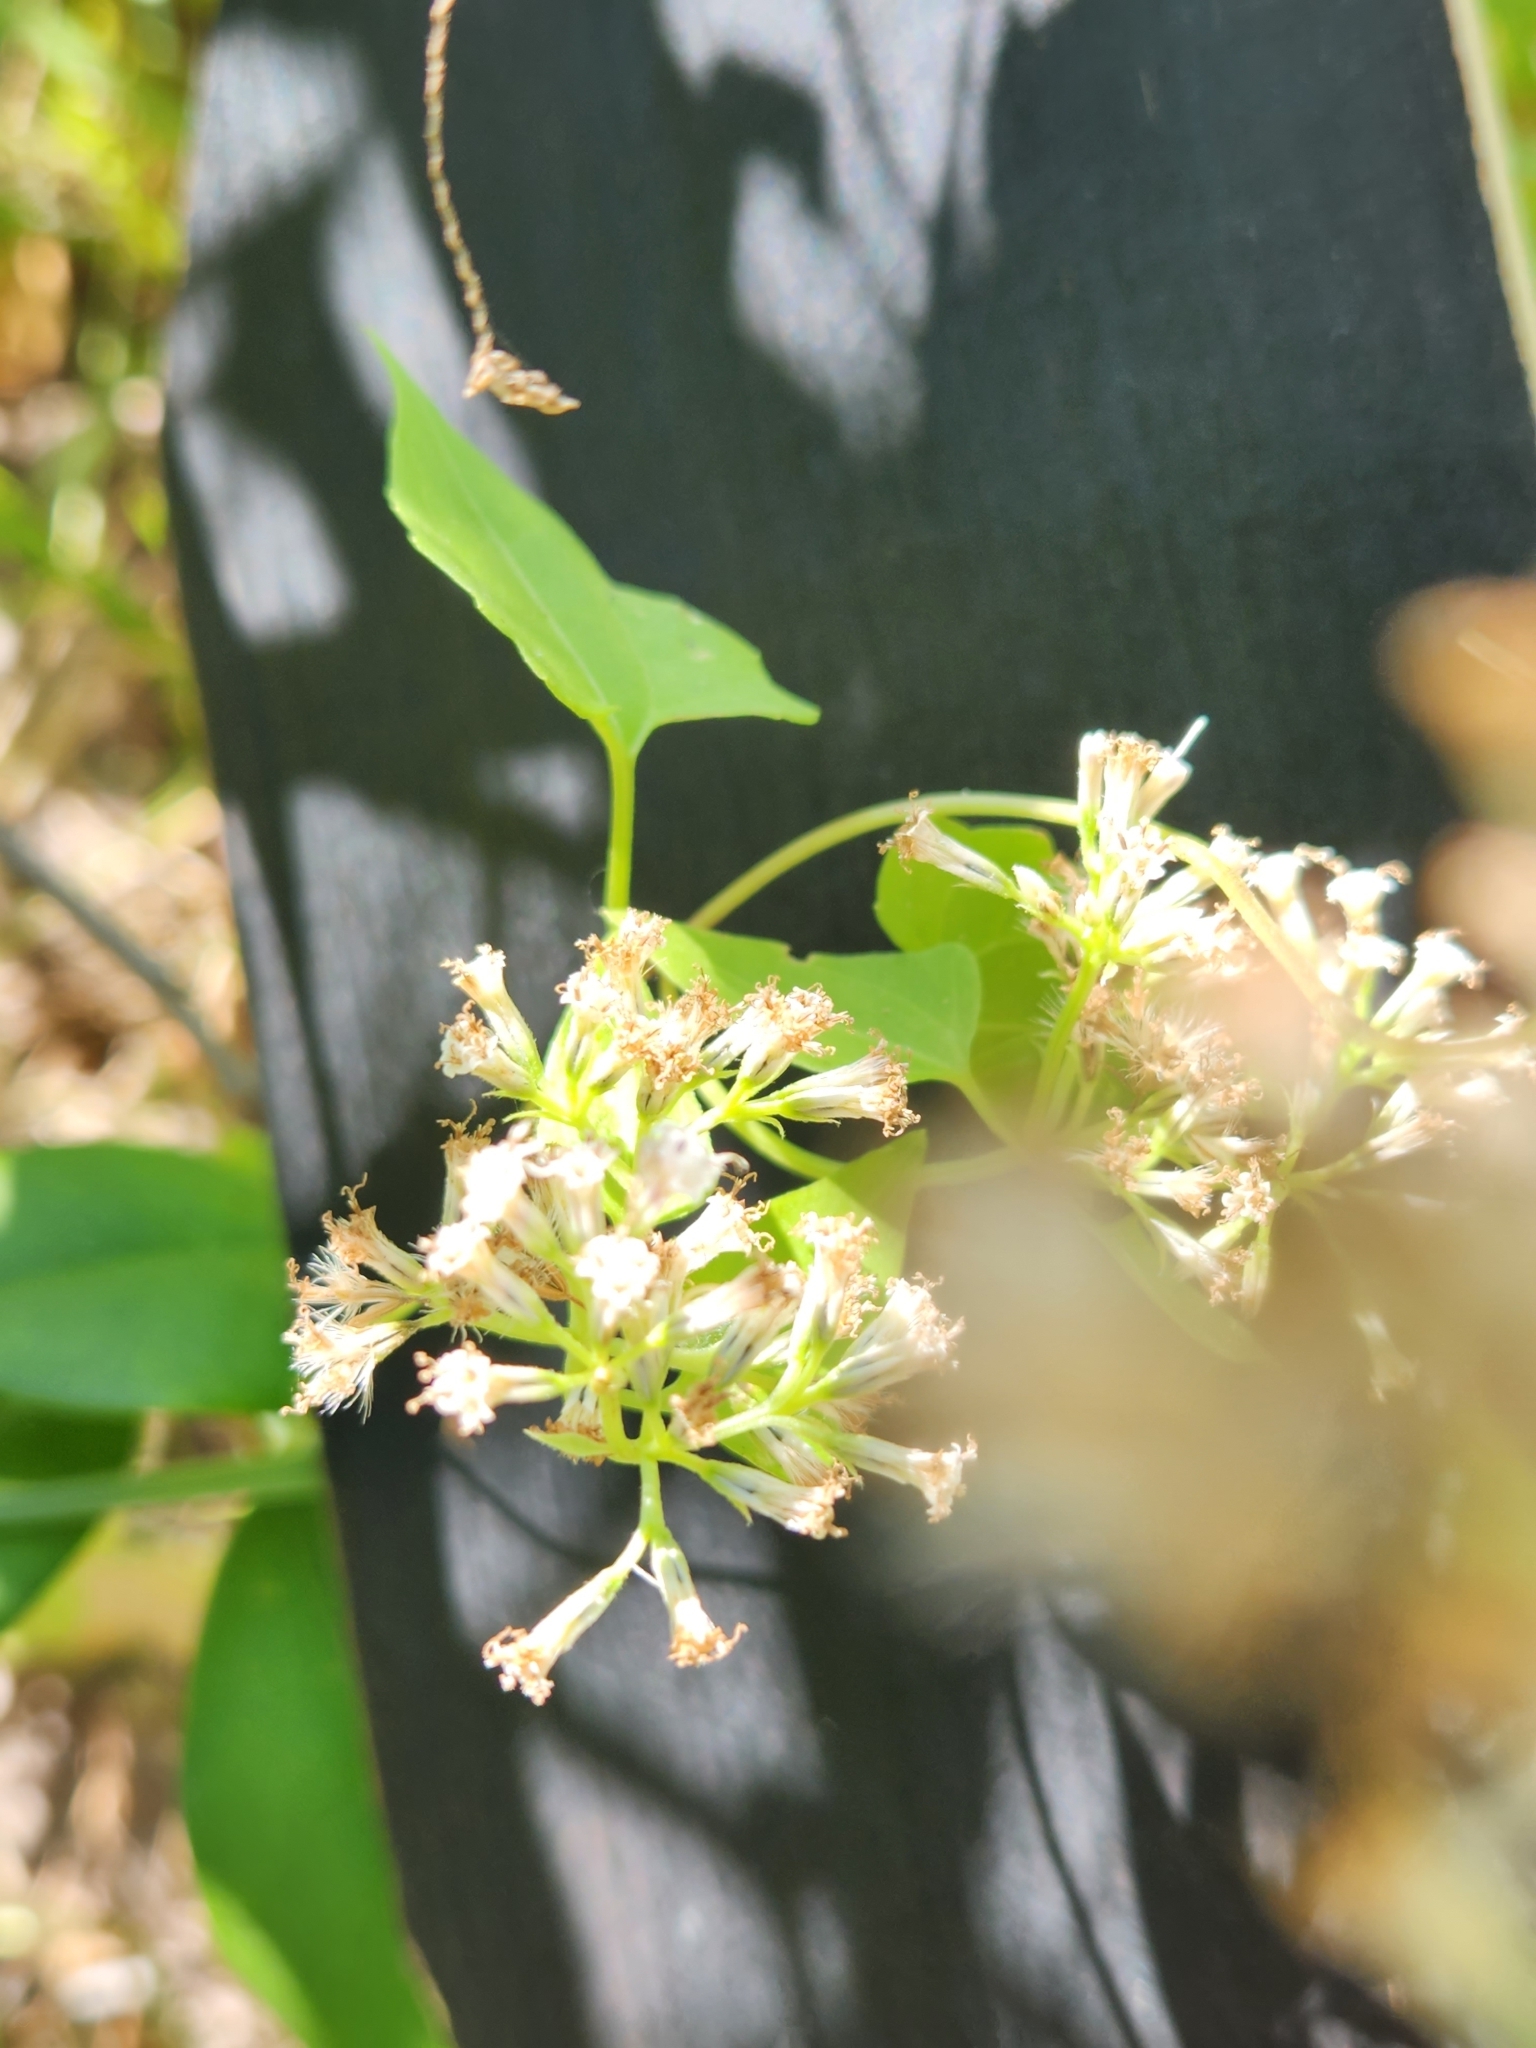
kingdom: Plantae
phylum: Tracheophyta
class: Magnoliopsida
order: Asterales
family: Asteraceae
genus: Mikania
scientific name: Mikania scandens
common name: Climbing hempvine
